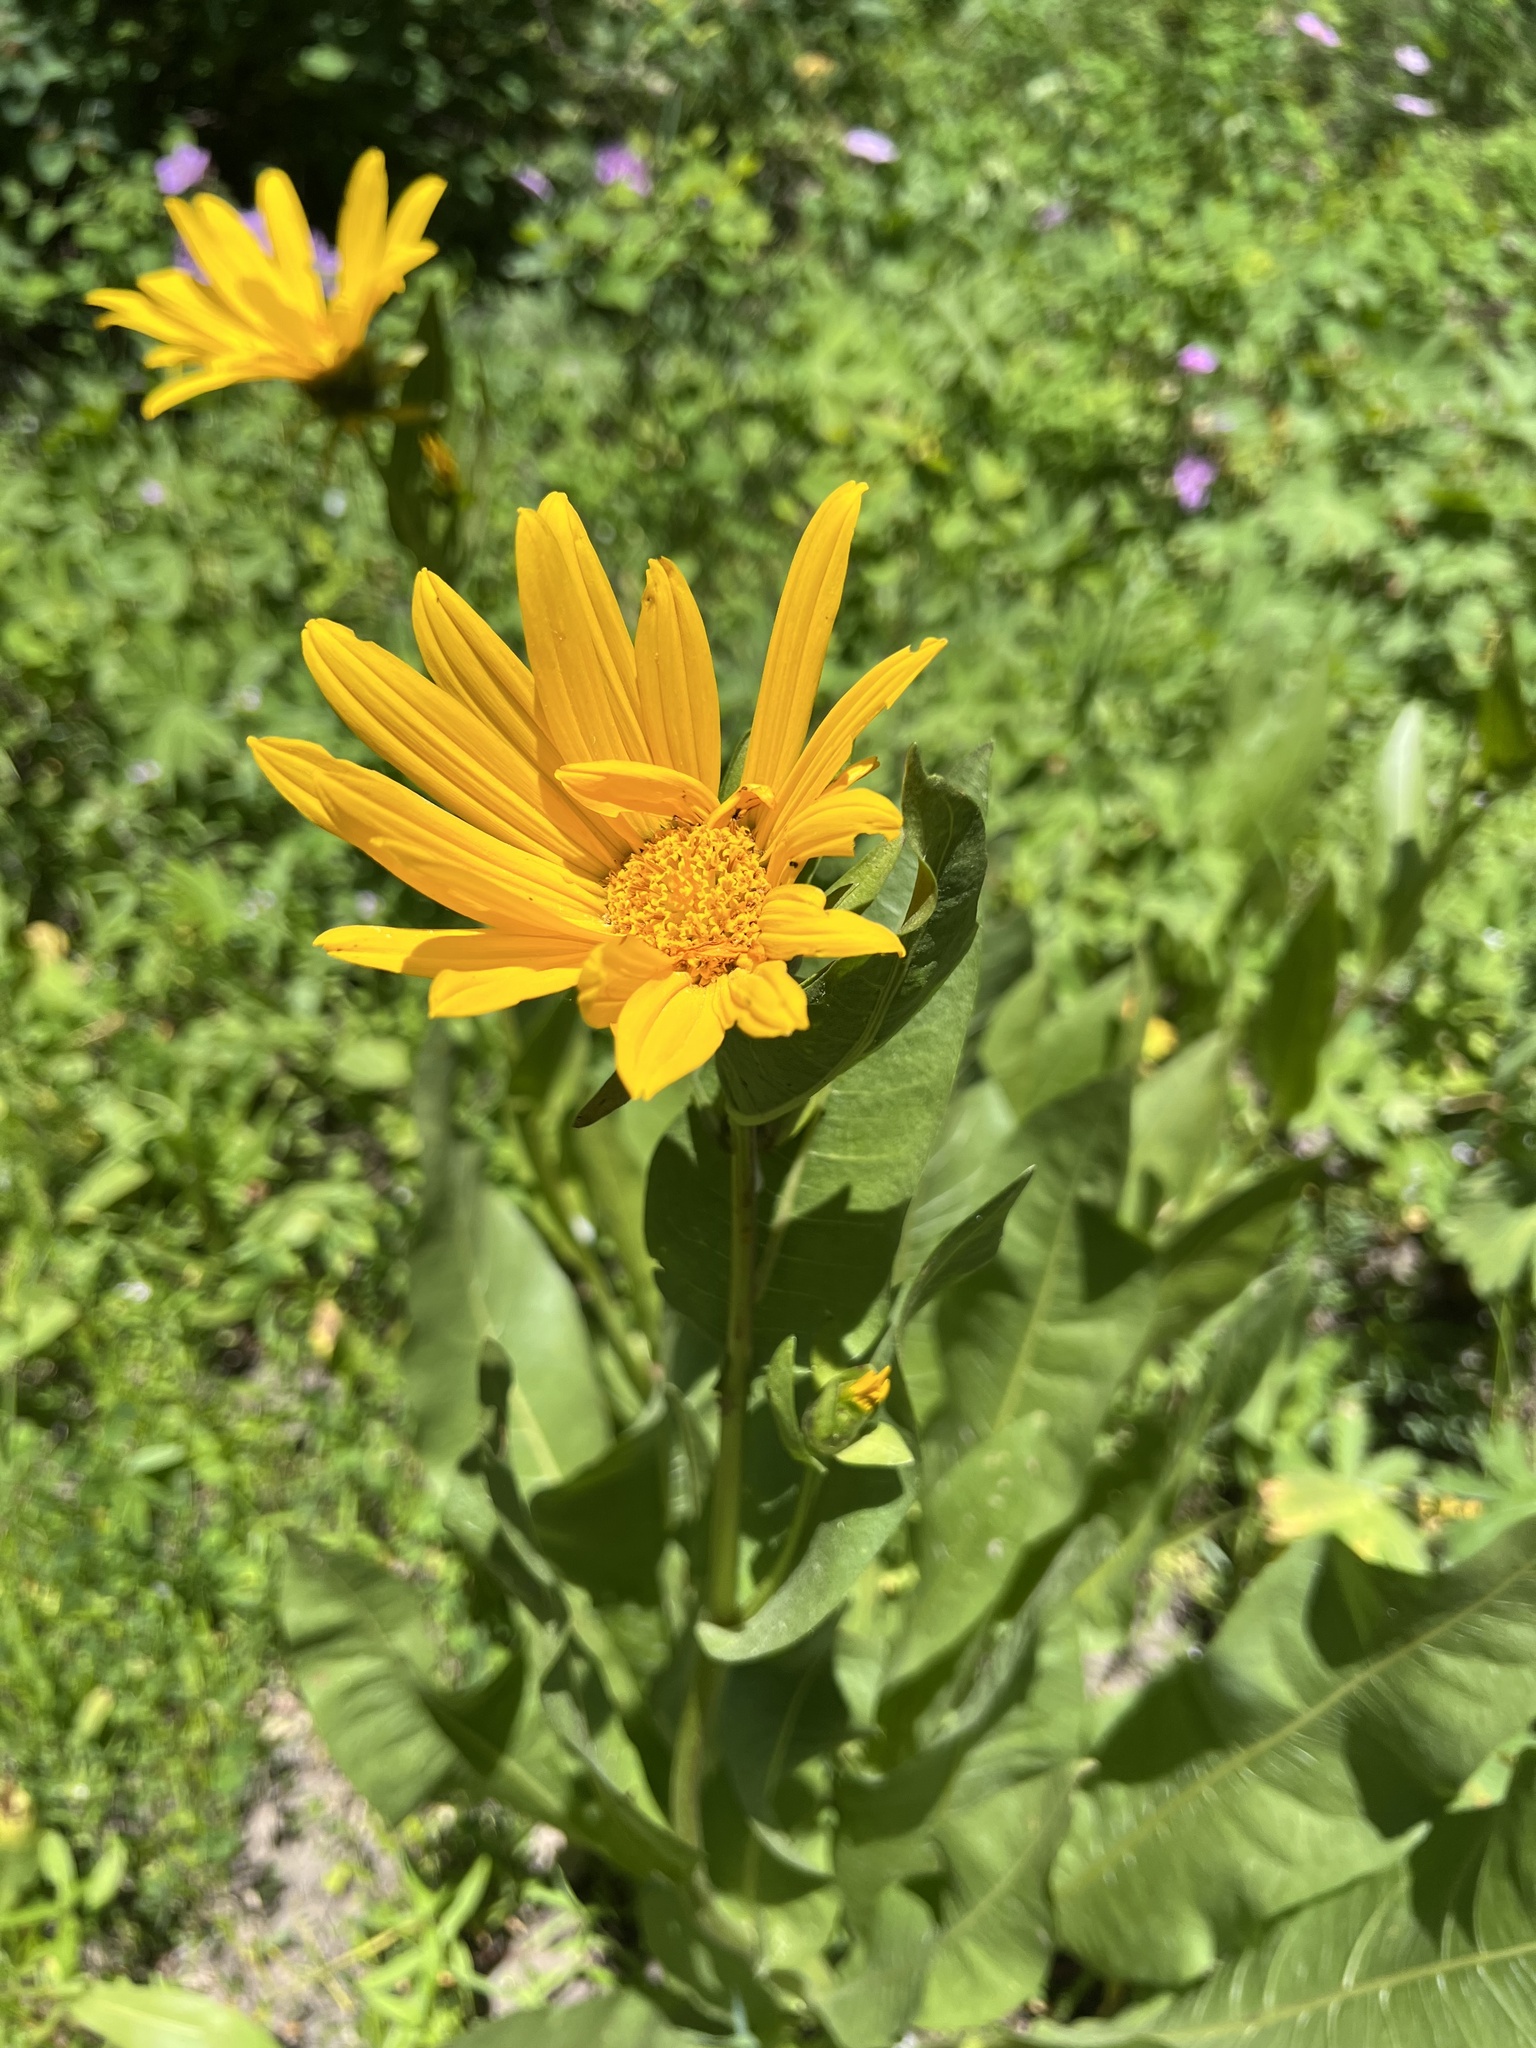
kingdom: Plantae
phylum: Tracheophyta
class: Magnoliopsida
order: Asterales
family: Asteraceae
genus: Wyethia
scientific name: Wyethia amplexicaulis
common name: Northern mule's-ears
